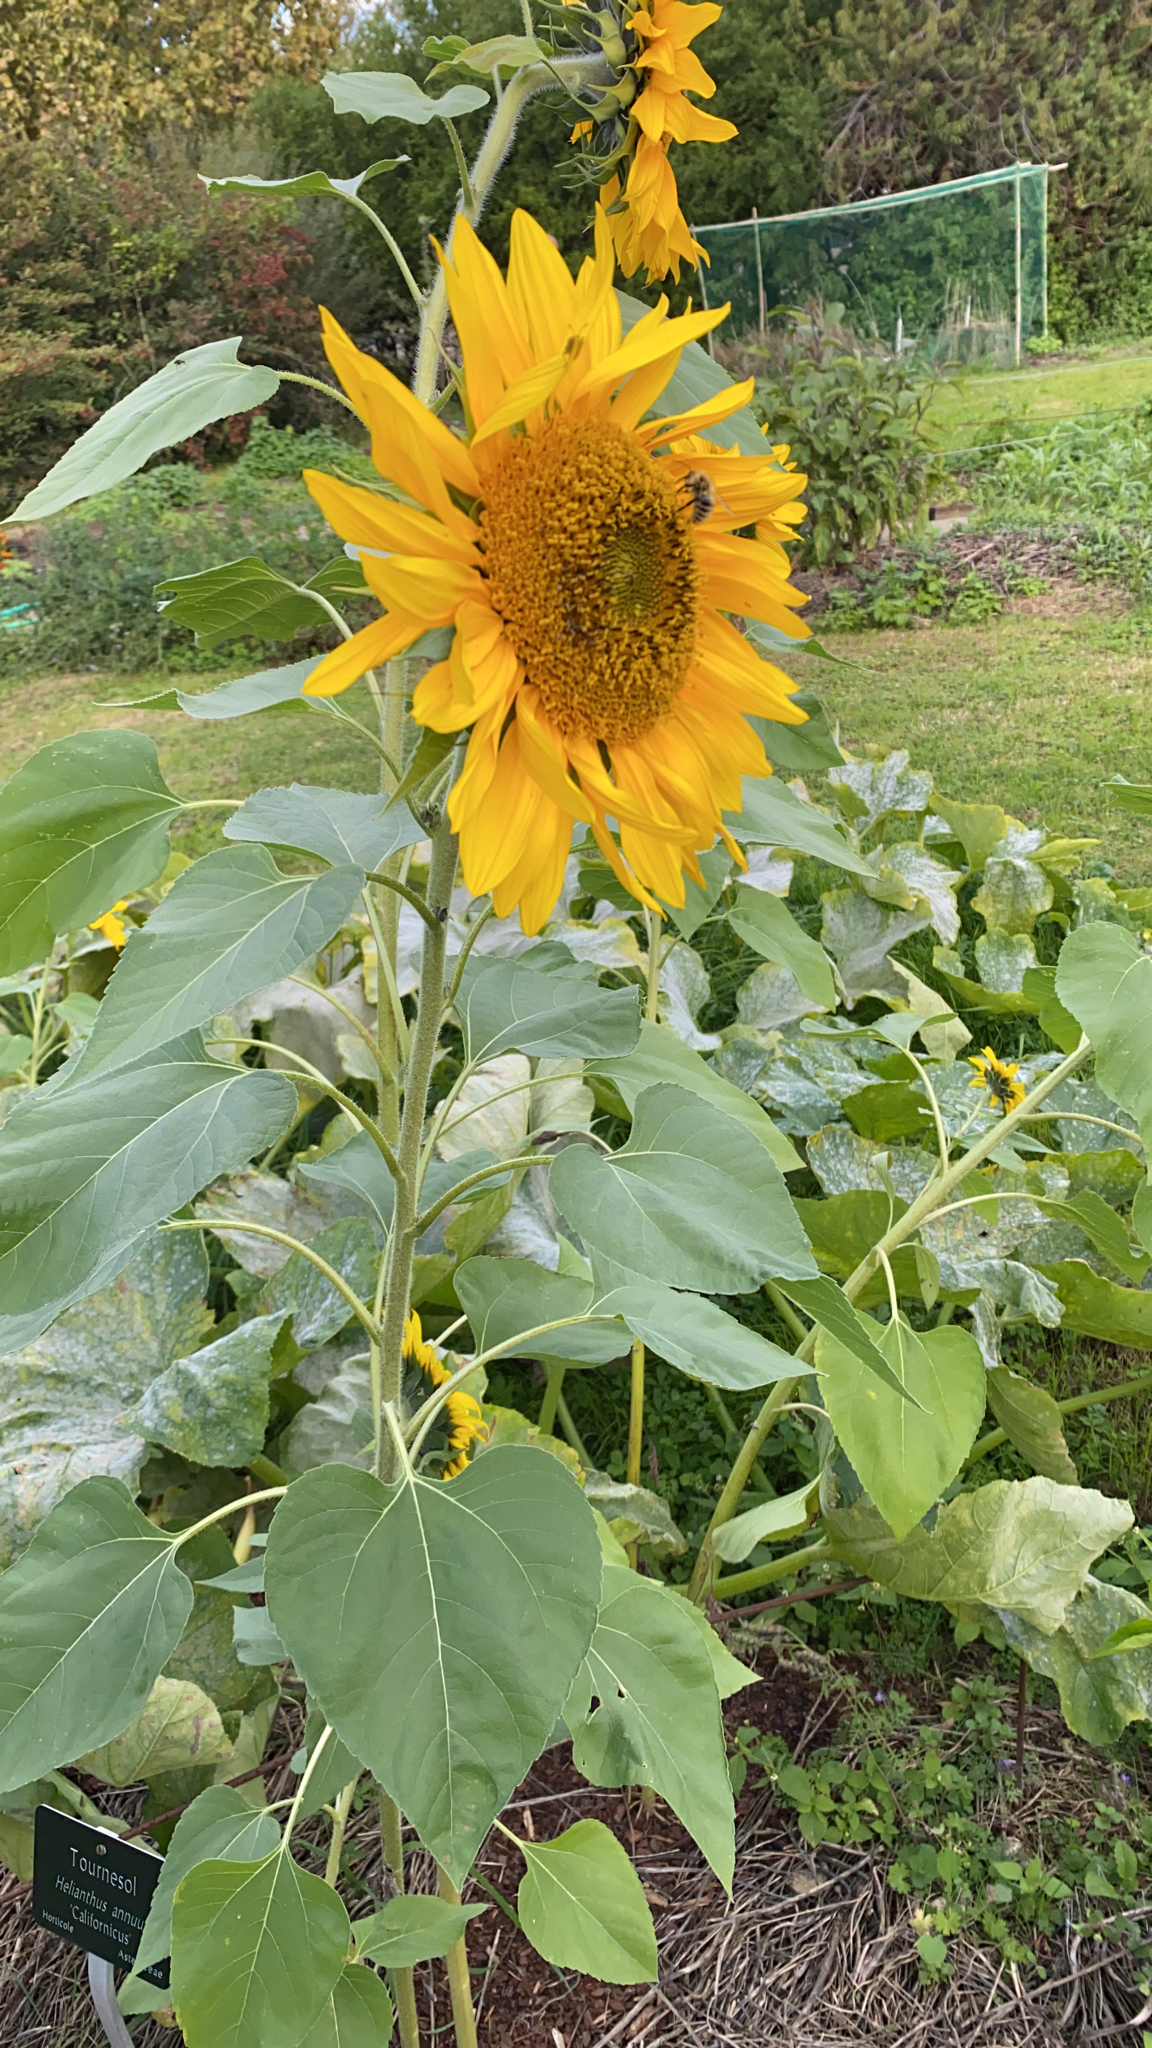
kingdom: Plantae
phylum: Tracheophyta
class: Magnoliopsida
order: Asterales
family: Asteraceae
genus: Helianthus
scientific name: Helianthus annuus
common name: Sunflower
